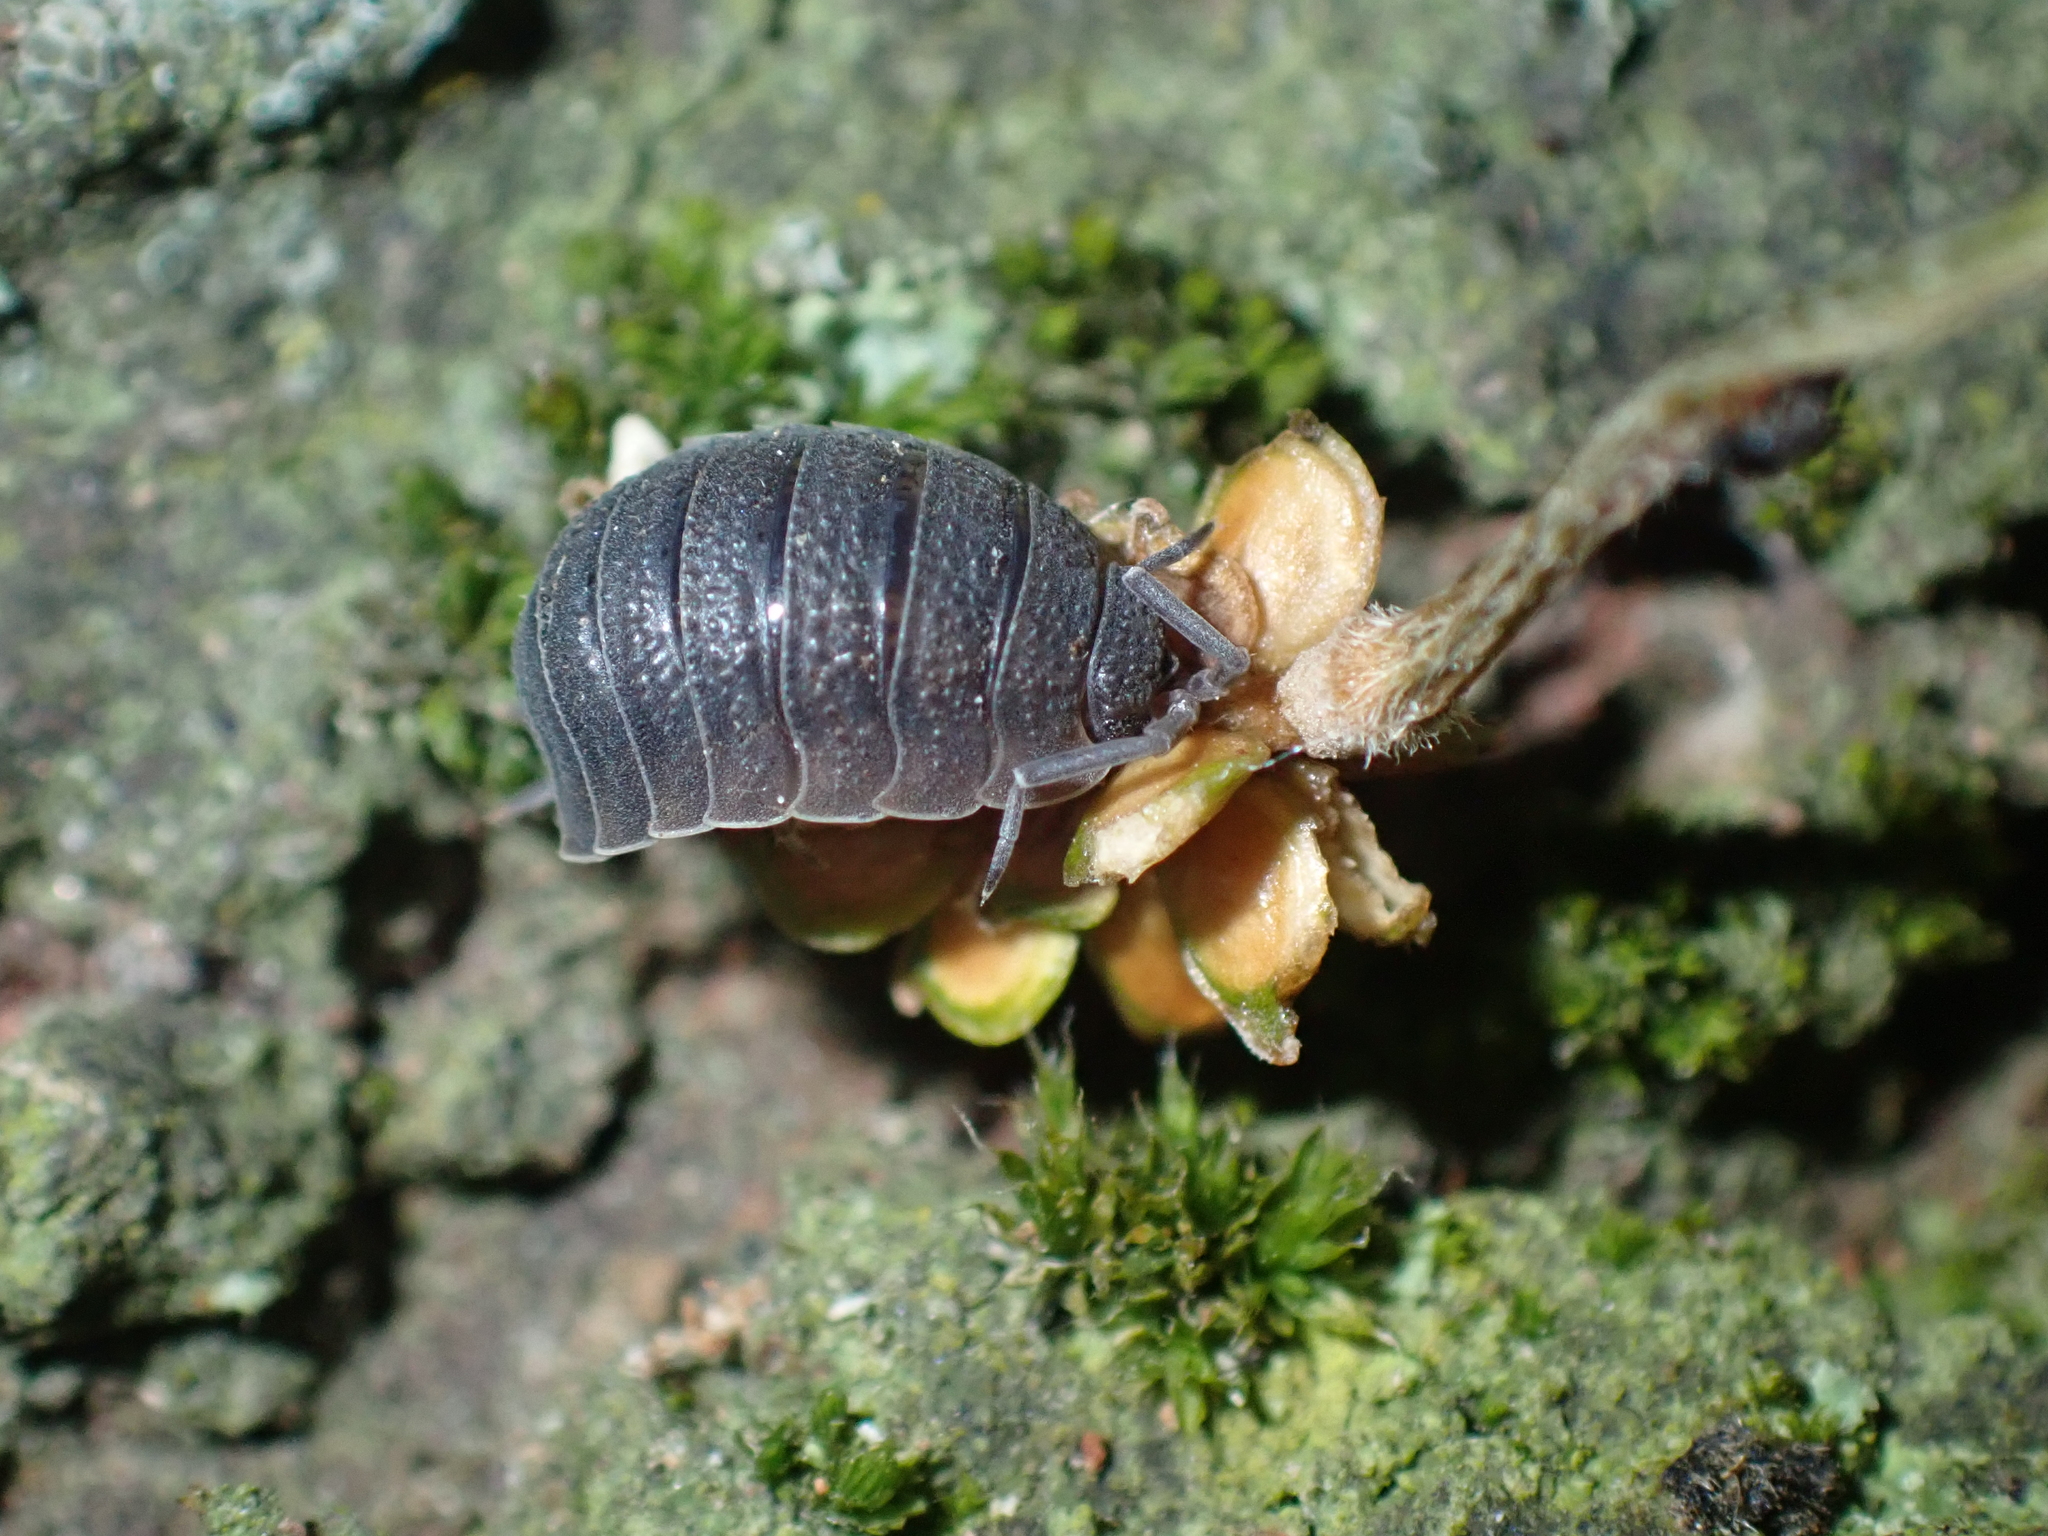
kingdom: Animalia
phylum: Arthropoda
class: Malacostraca
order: Isopoda
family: Porcellionidae
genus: Porcellio
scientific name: Porcellio scaber
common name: Common rough woodlouse
